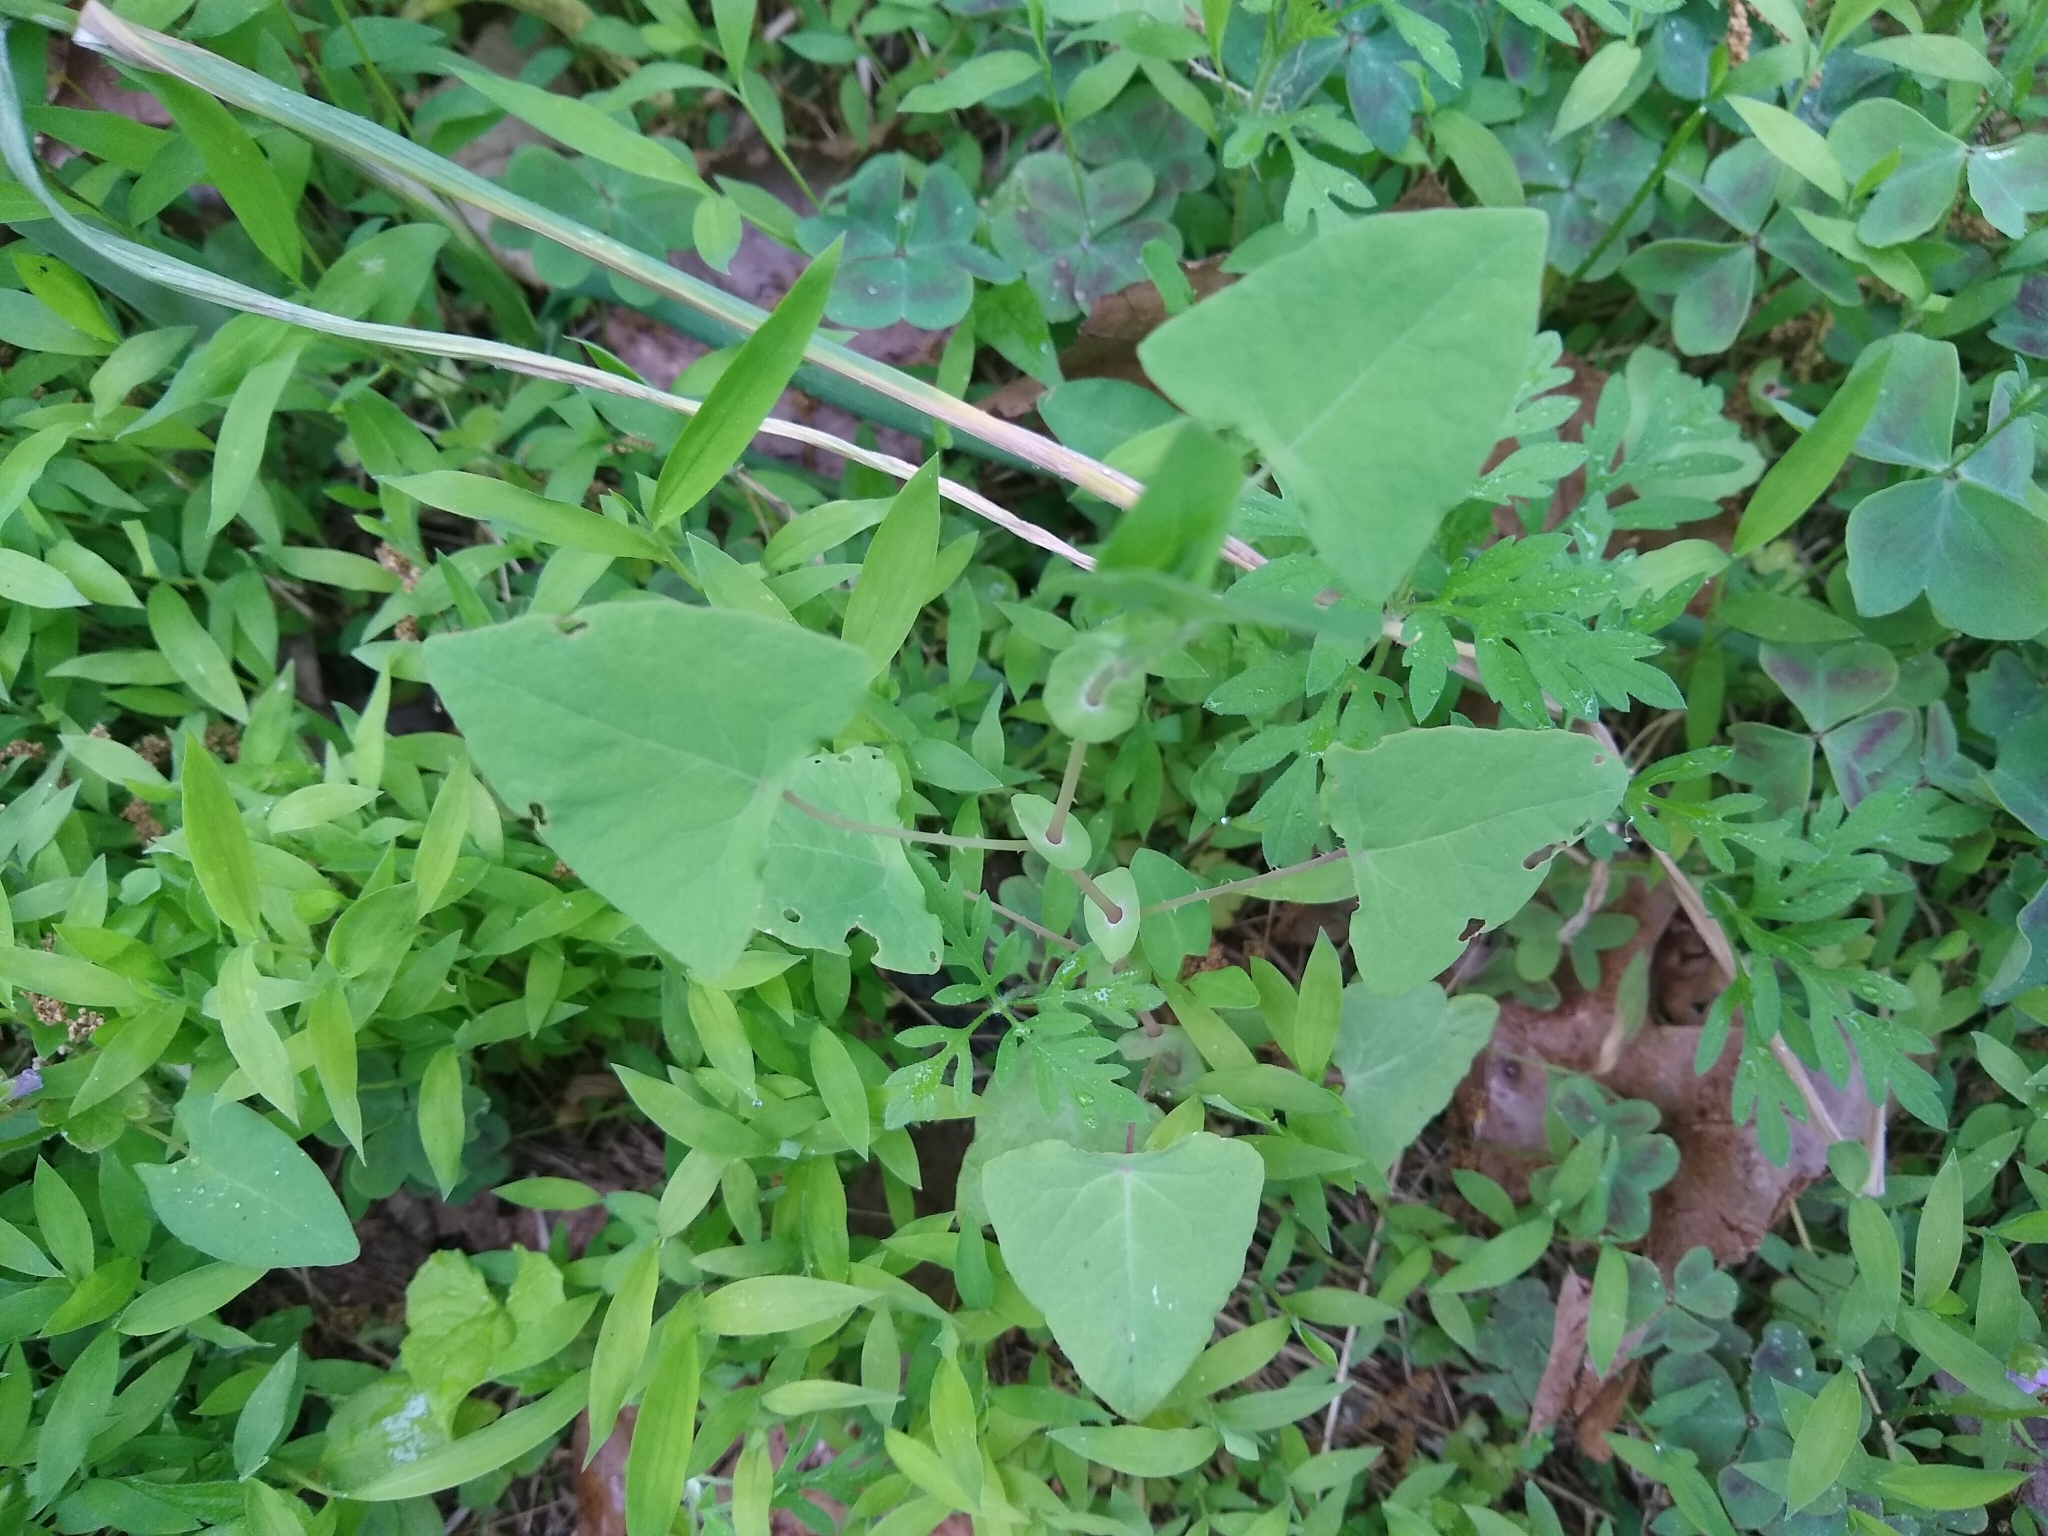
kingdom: Plantae
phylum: Tracheophyta
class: Magnoliopsida
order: Caryophyllales
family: Polygonaceae
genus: Persicaria
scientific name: Persicaria perfoliata
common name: Asiatic tearthumb
